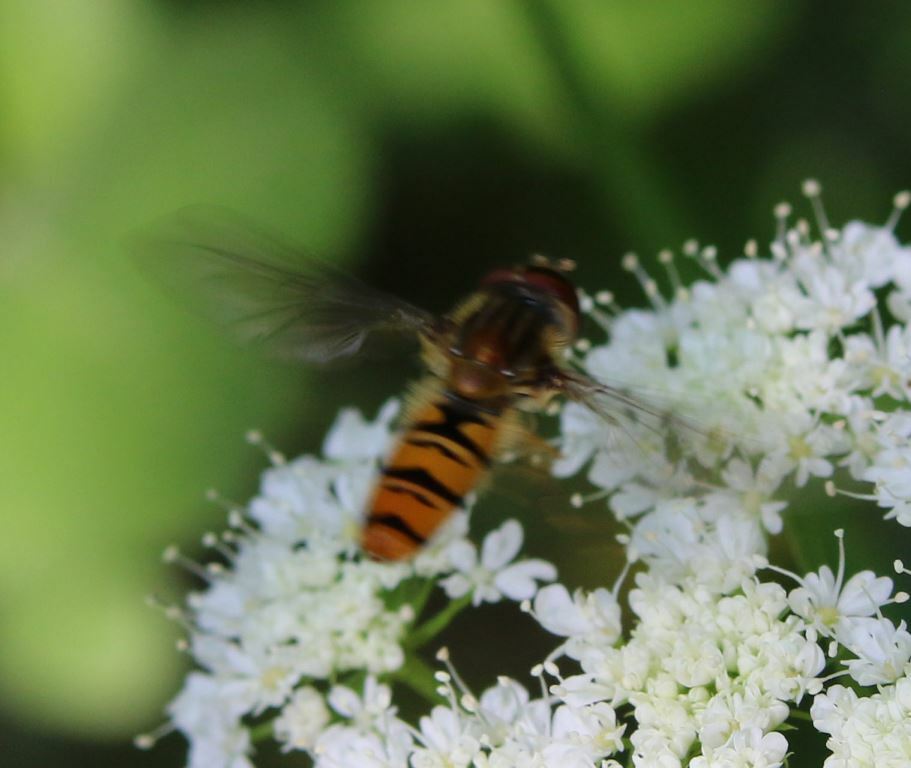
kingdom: Animalia
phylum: Arthropoda
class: Insecta
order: Diptera
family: Syrphidae
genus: Episyrphus
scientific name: Episyrphus balteatus
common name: Marmalade hoverfly
